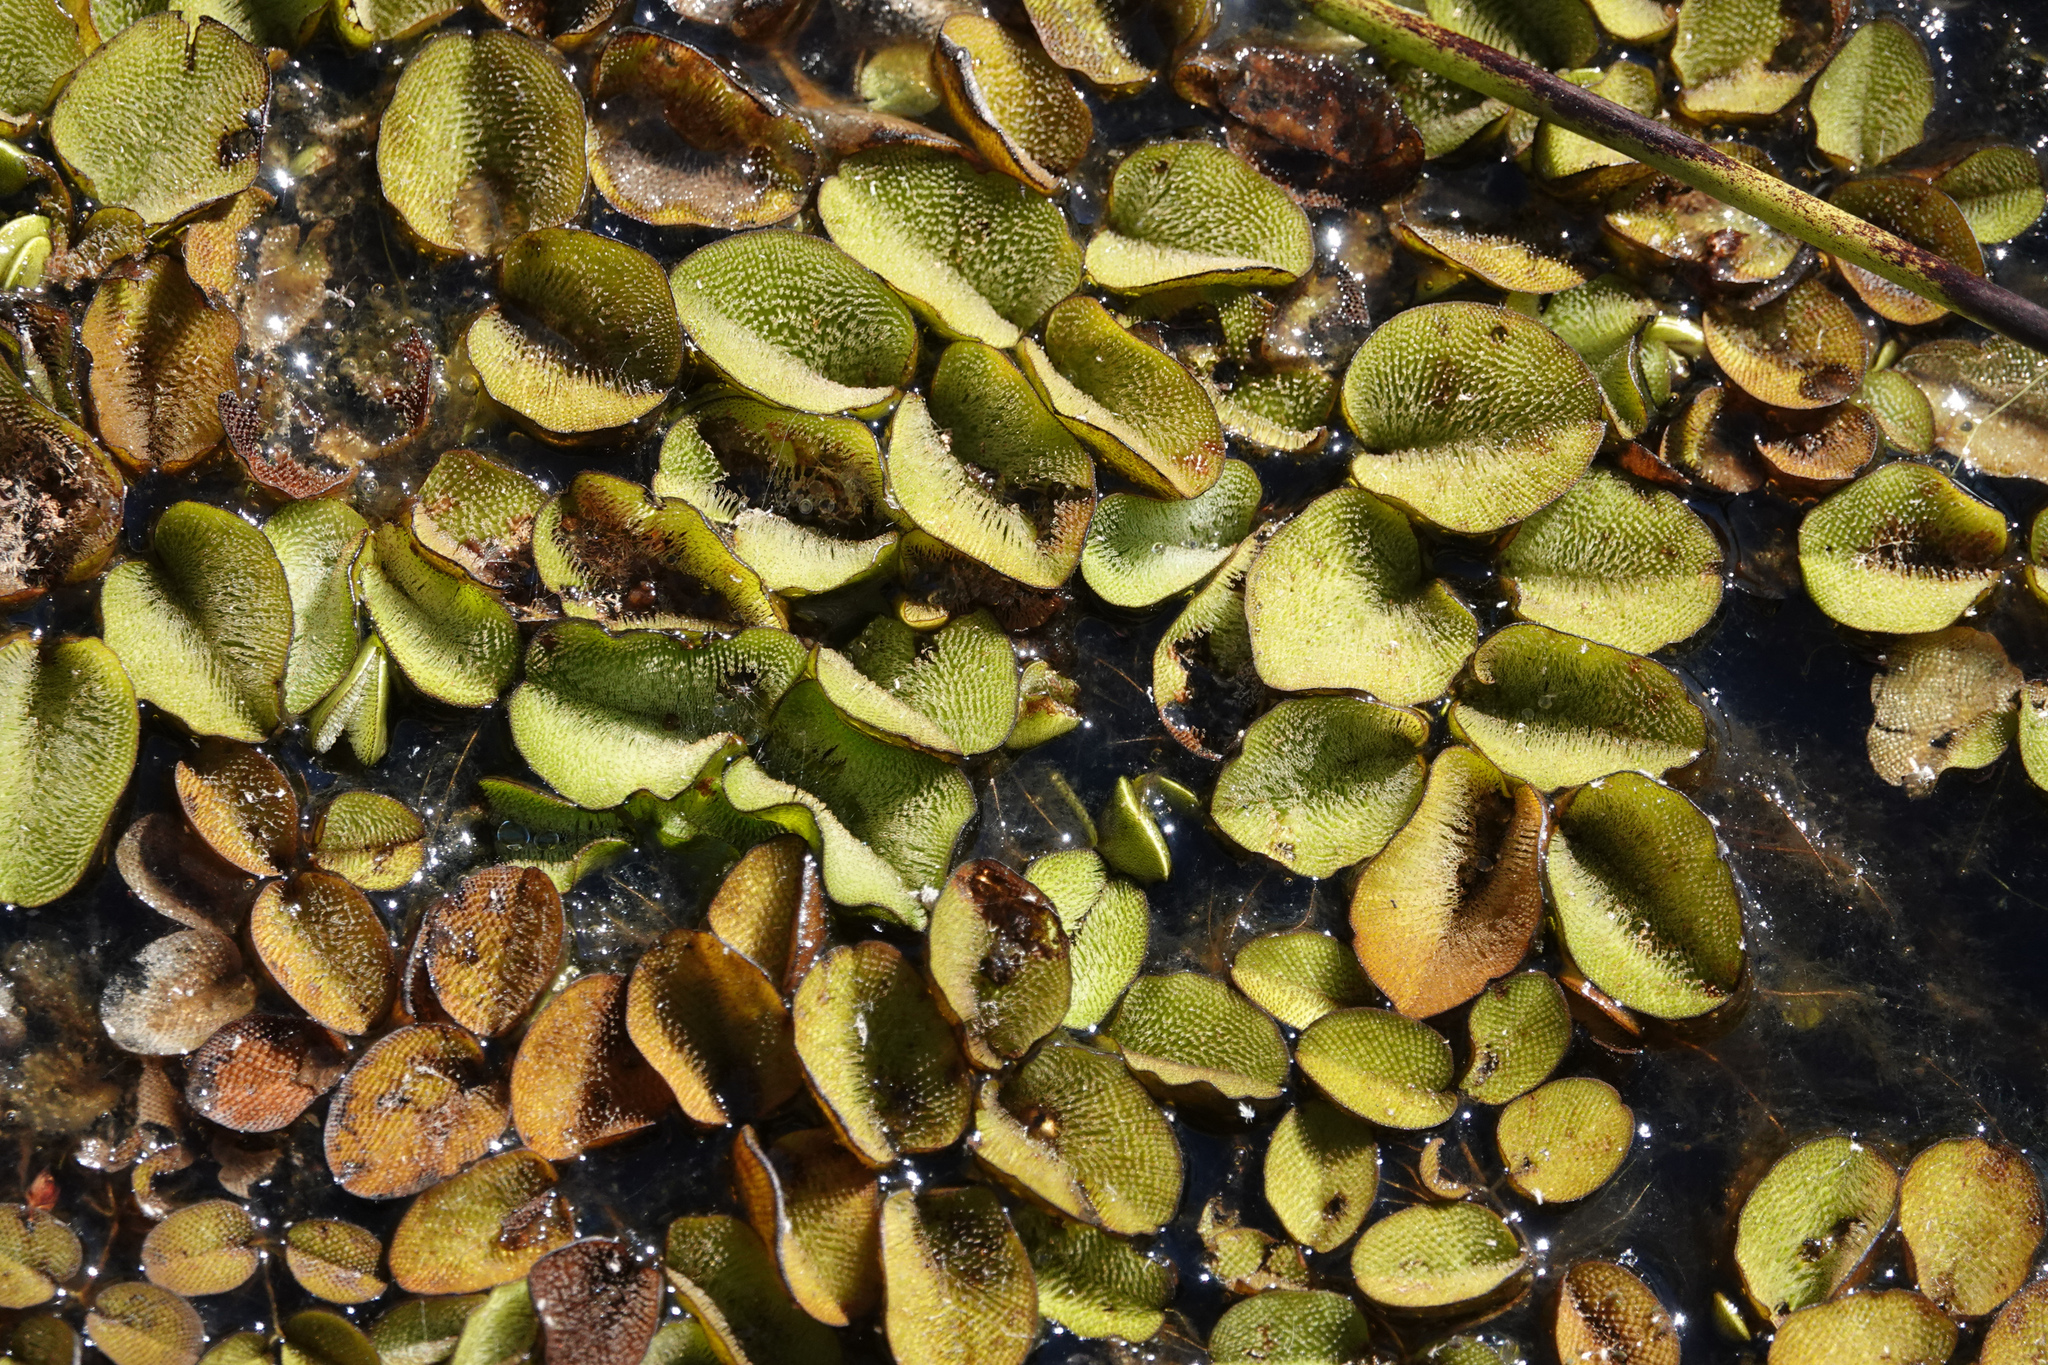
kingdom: Plantae
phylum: Tracheophyta
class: Polypodiopsida
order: Salviniales
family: Salviniaceae
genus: Salvinia
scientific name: Salvinia molesta
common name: Kariba weed
